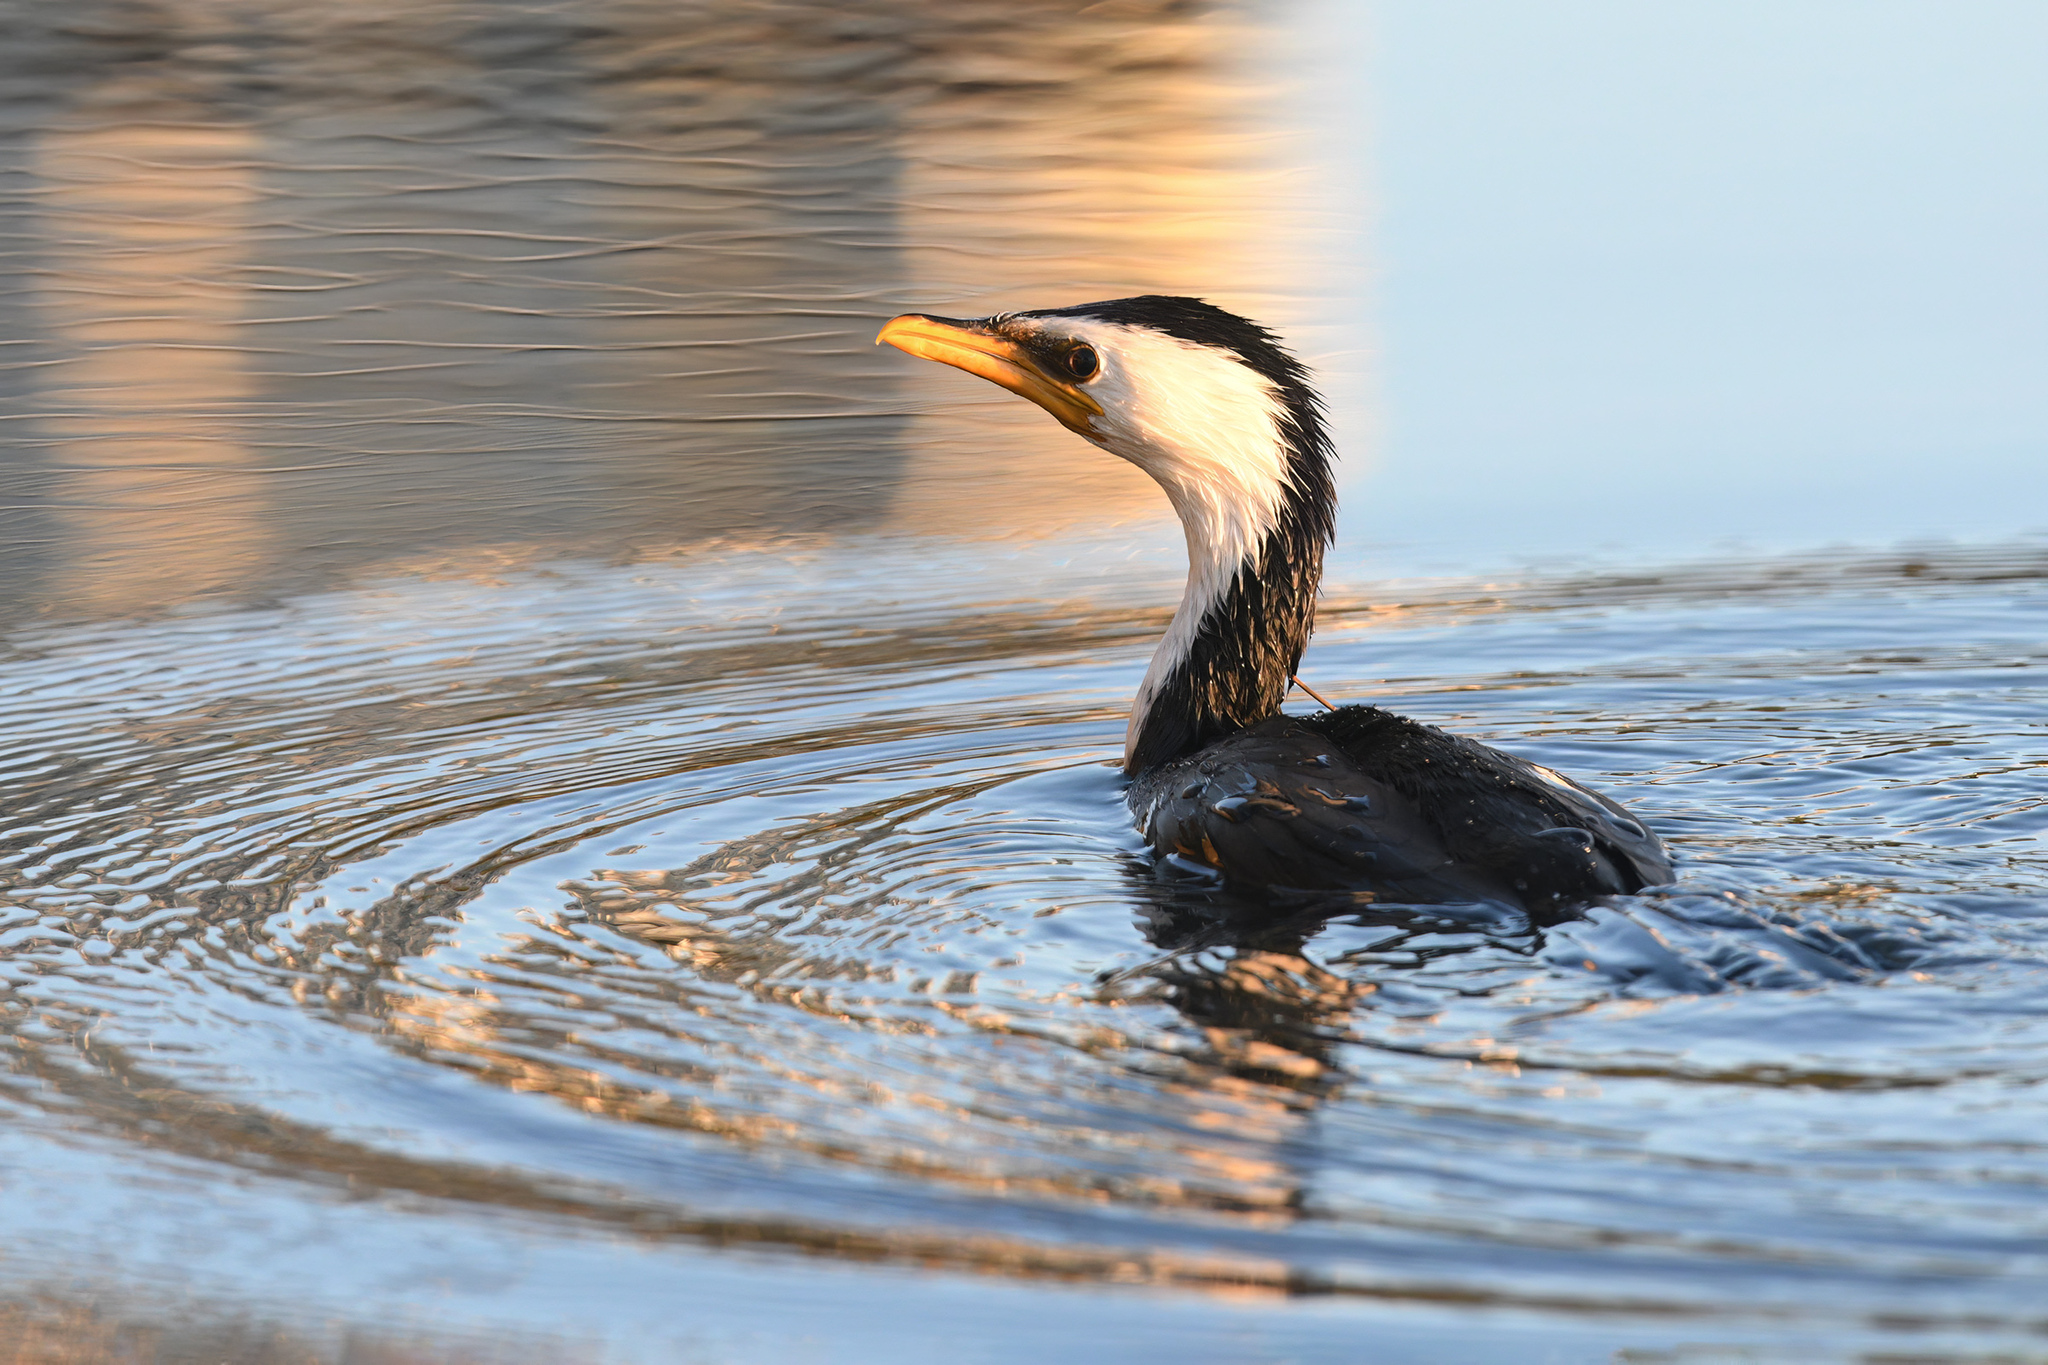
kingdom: Animalia
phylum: Chordata
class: Aves
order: Suliformes
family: Phalacrocoracidae
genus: Microcarbo
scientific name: Microcarbo melanoleucos
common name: Little pied cormorant
